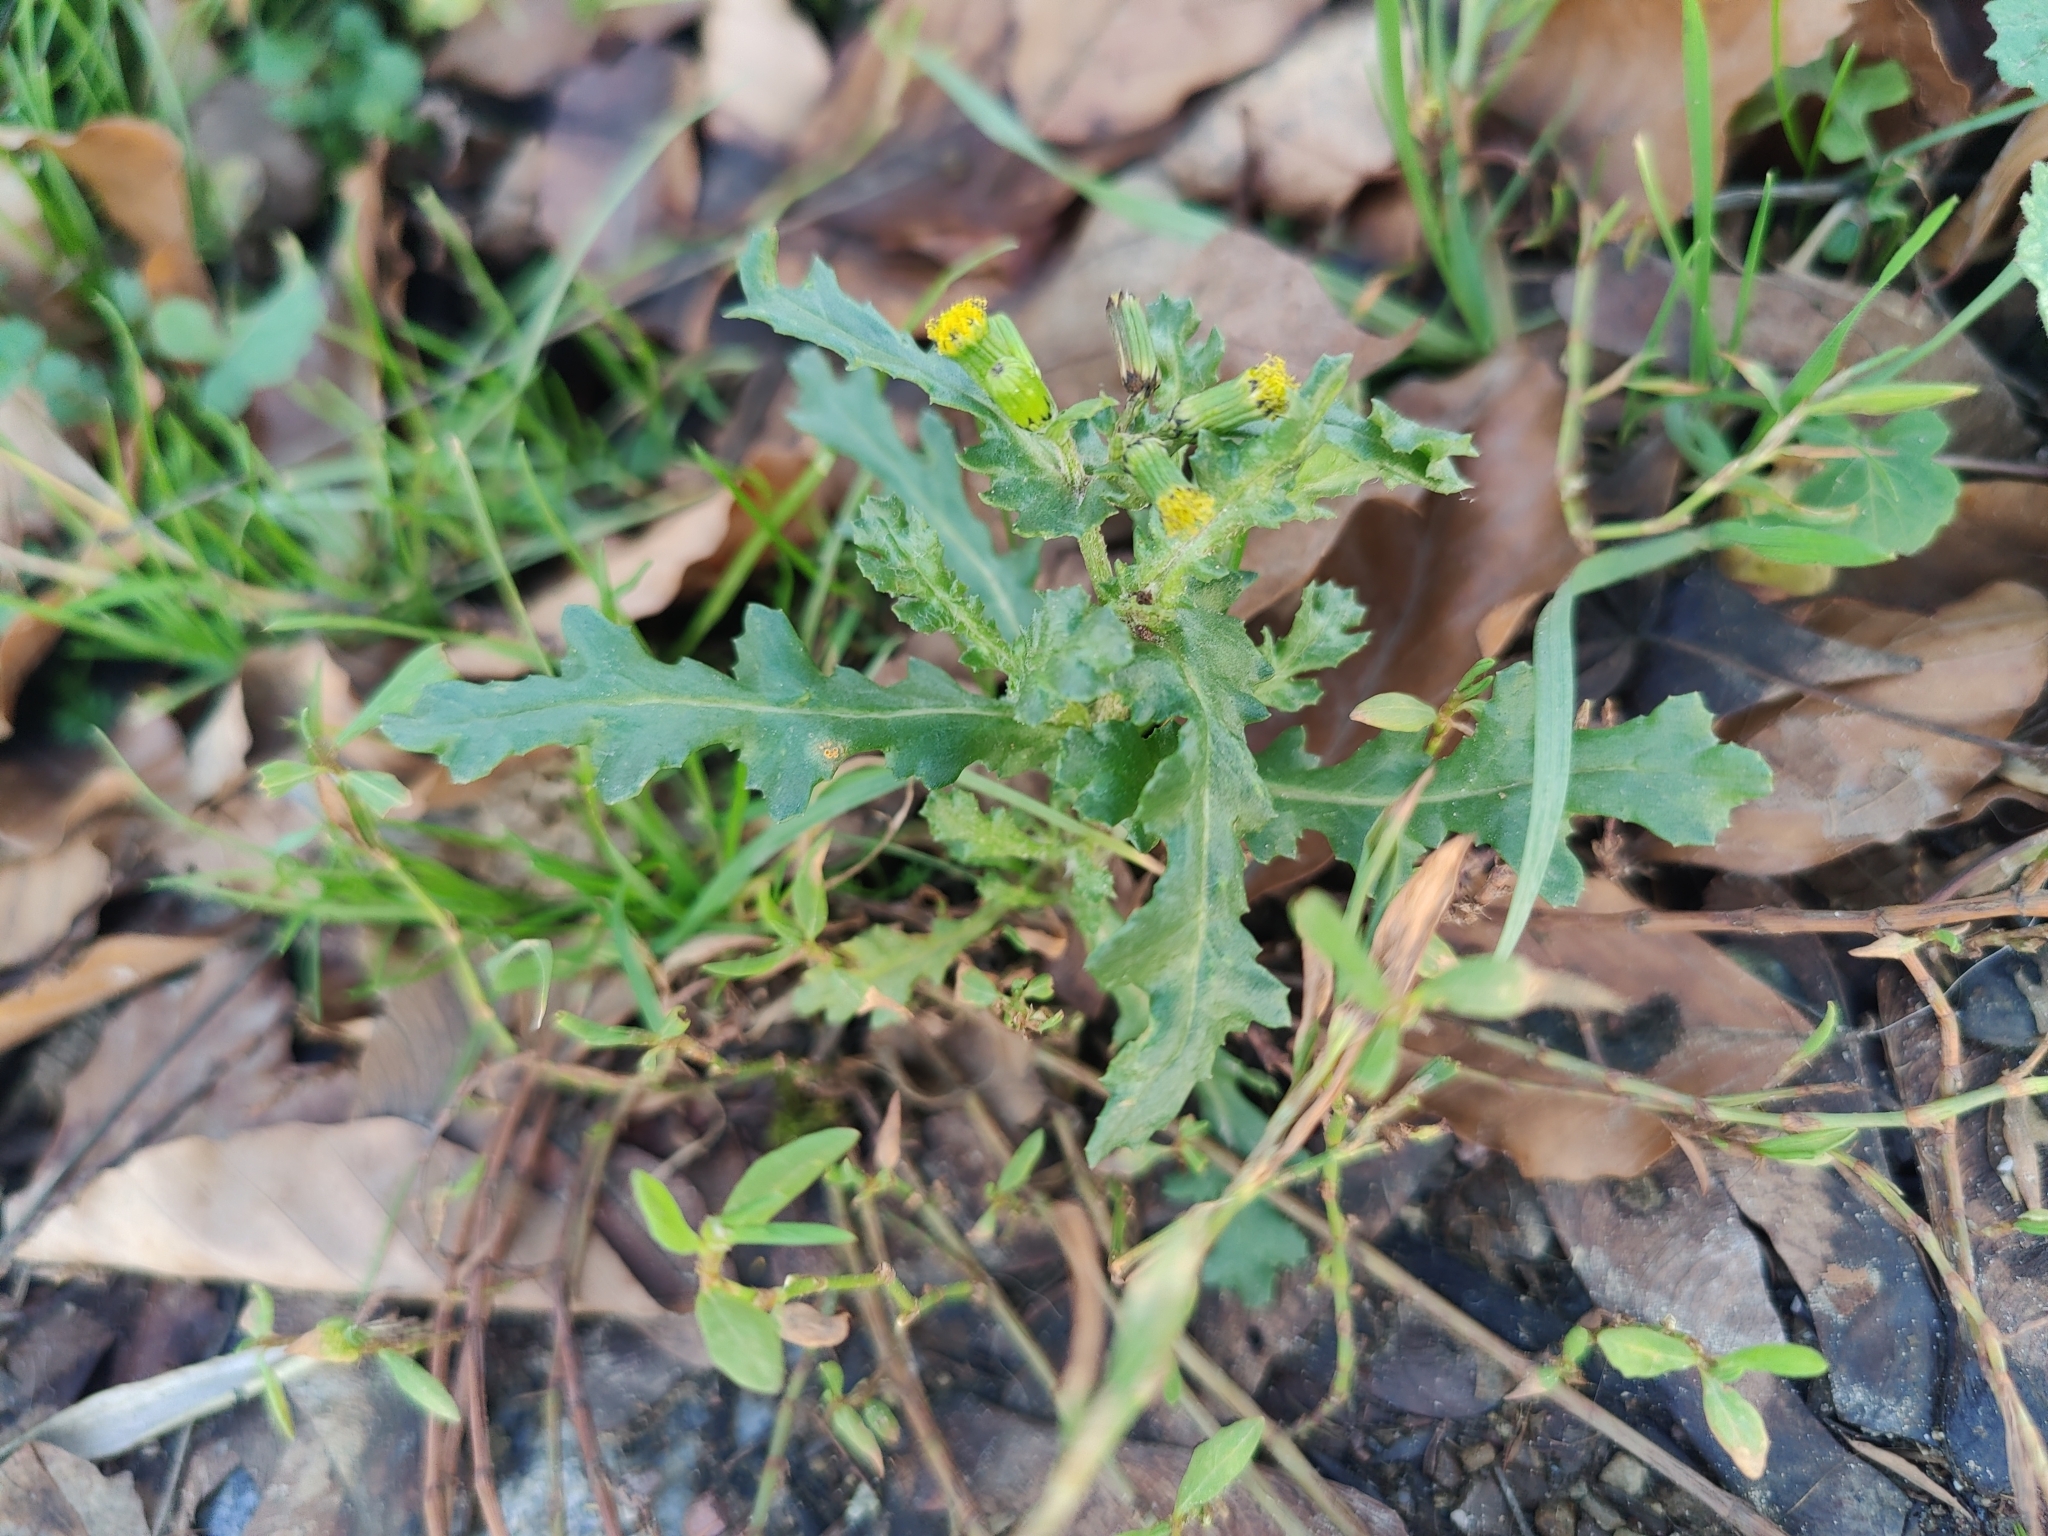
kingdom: Plantae
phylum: Tracheophyta
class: Magnoliopsida
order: Asterales
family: Asteraceae
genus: Senecio
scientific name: Senecio vulgaris
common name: Old-man-in-the-spring
